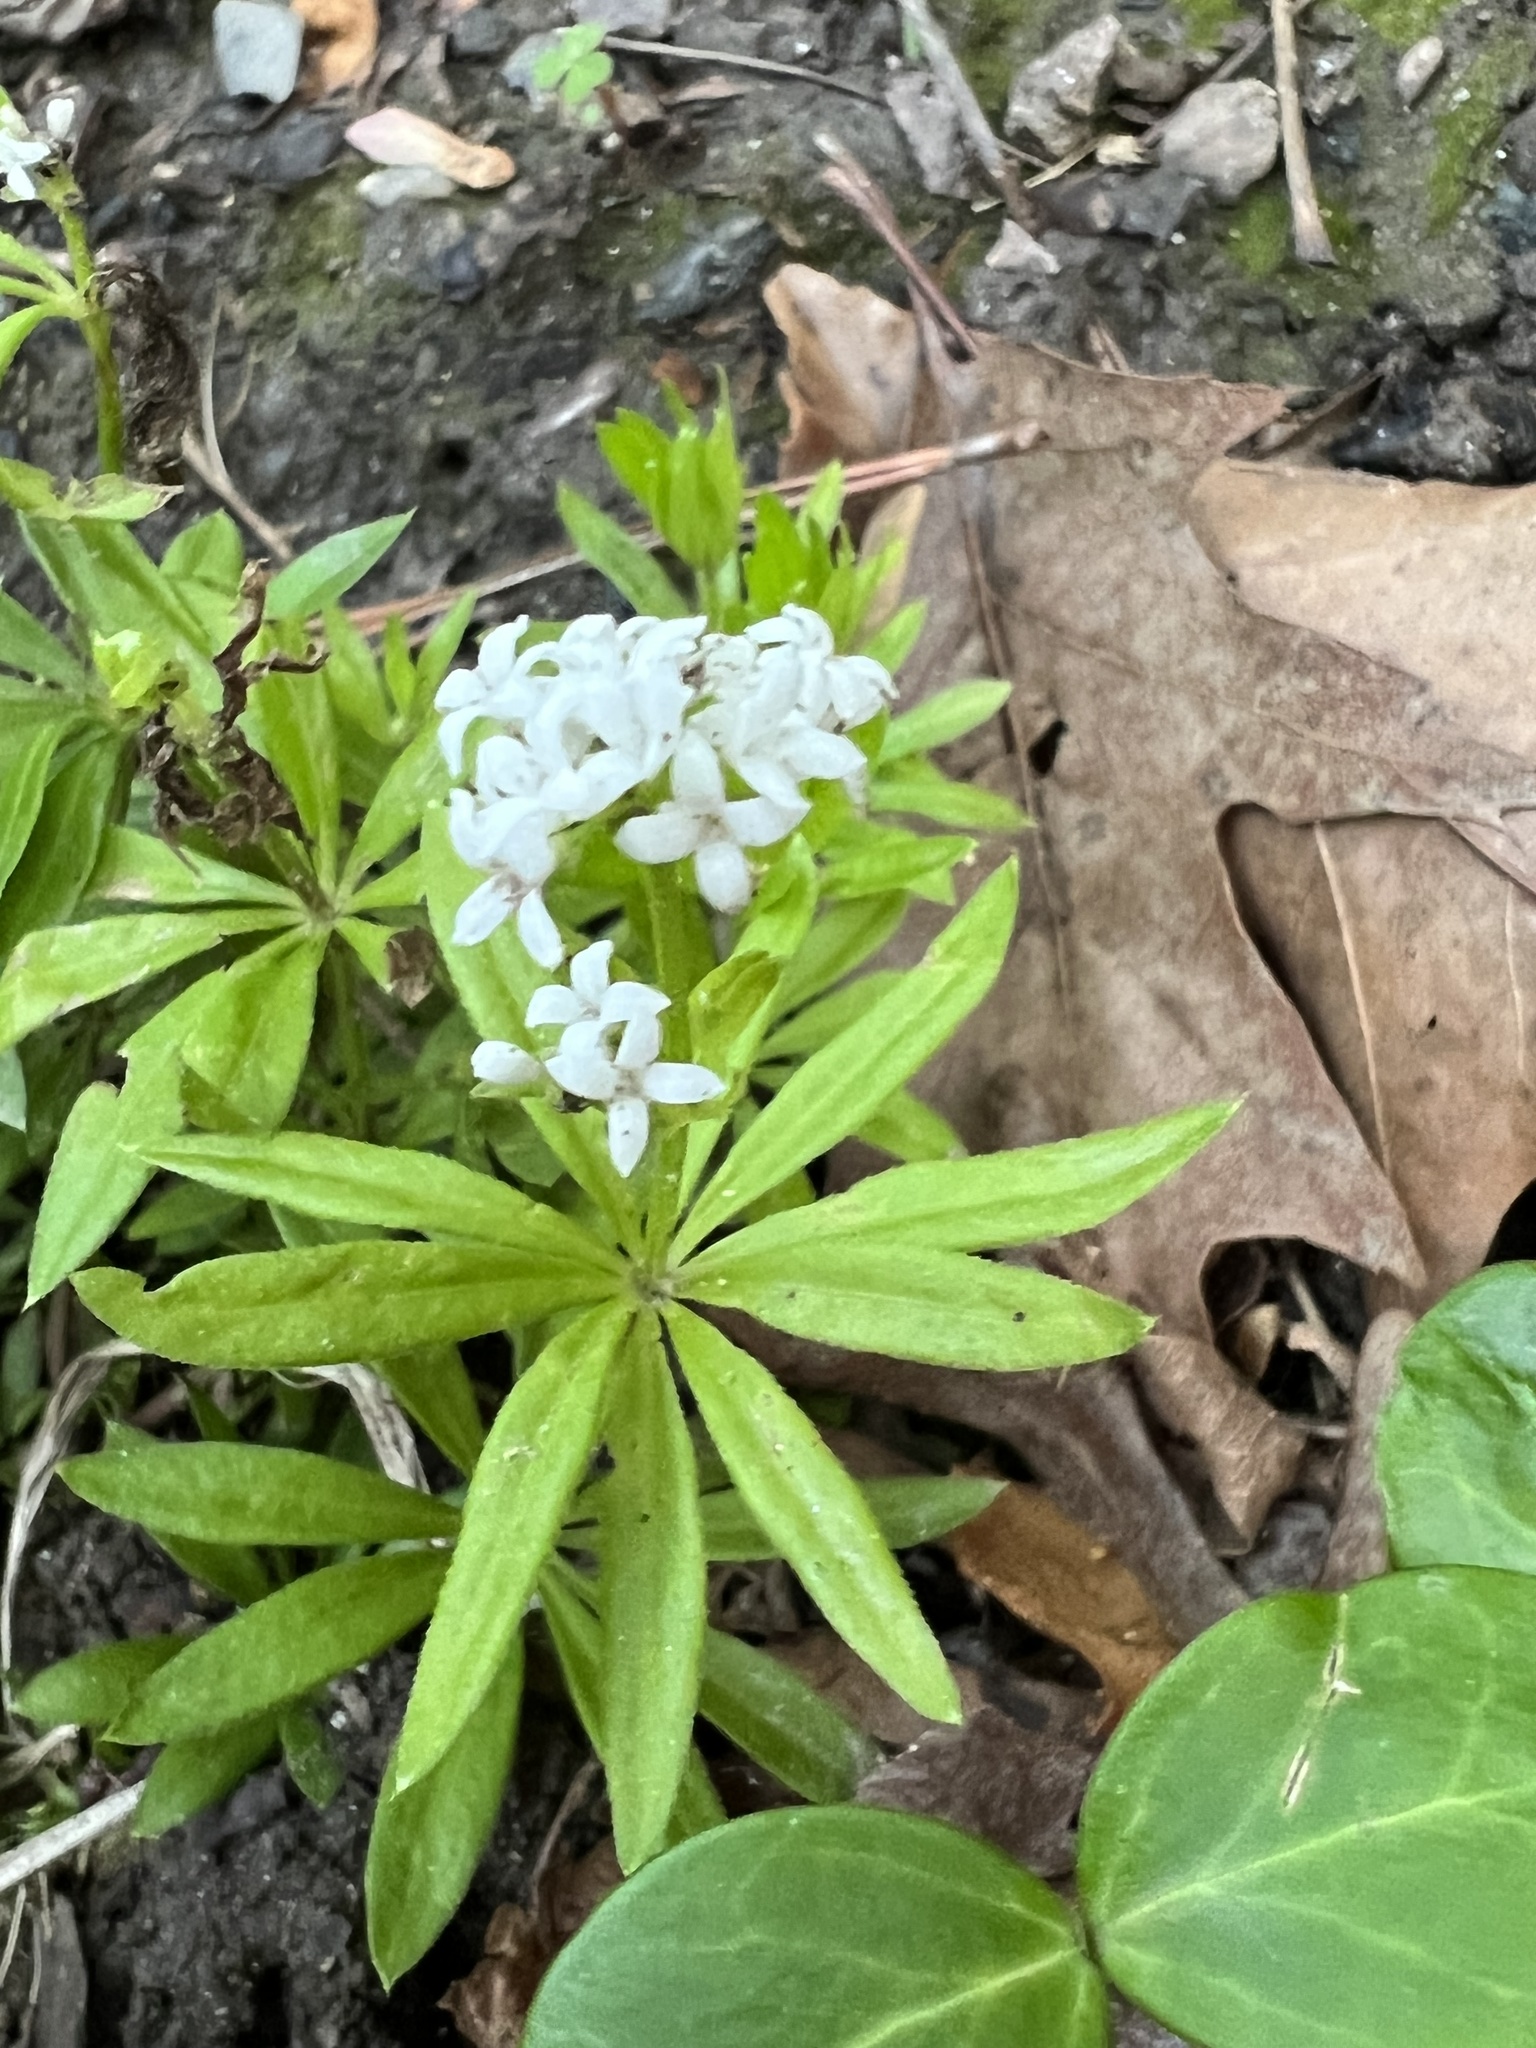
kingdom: Plantae
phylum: Tracheophyta
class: Magnoliopsida
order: Gentianales
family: Rubiaceae
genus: Galium
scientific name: Galium odoratum
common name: Sweet woodruff
